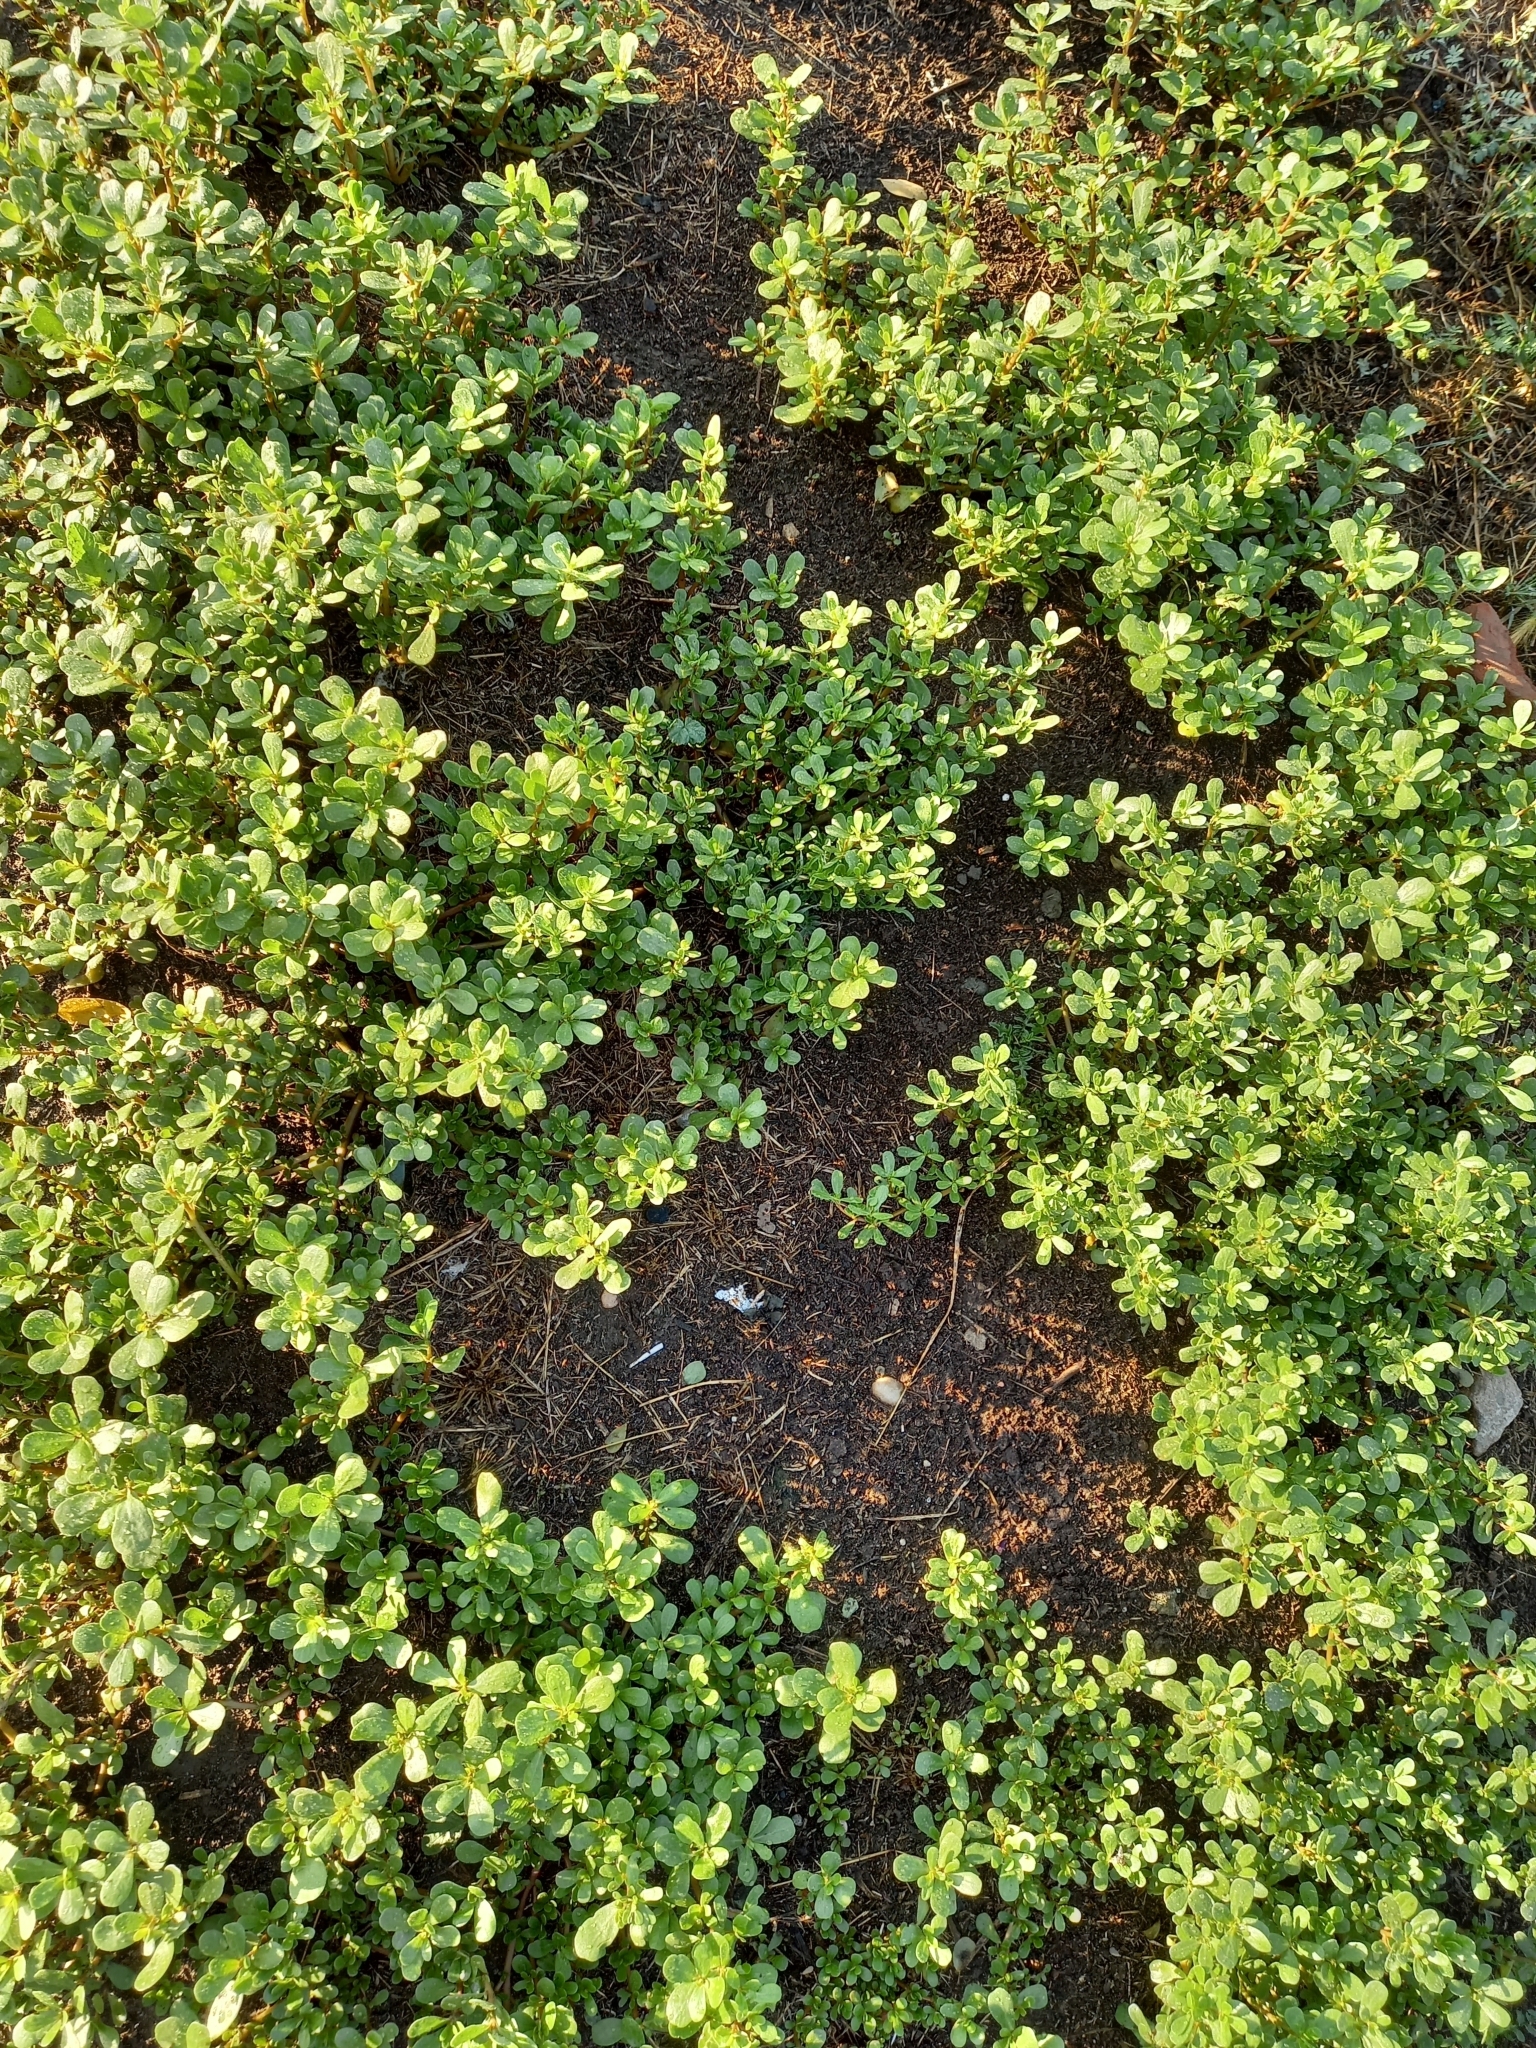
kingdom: Plantae
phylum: Tracheophyta
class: Magnoliopsida
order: Caryophyllales
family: Portulacaceae
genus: Portulaca
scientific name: Portulaca oleracea
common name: Common purslane
